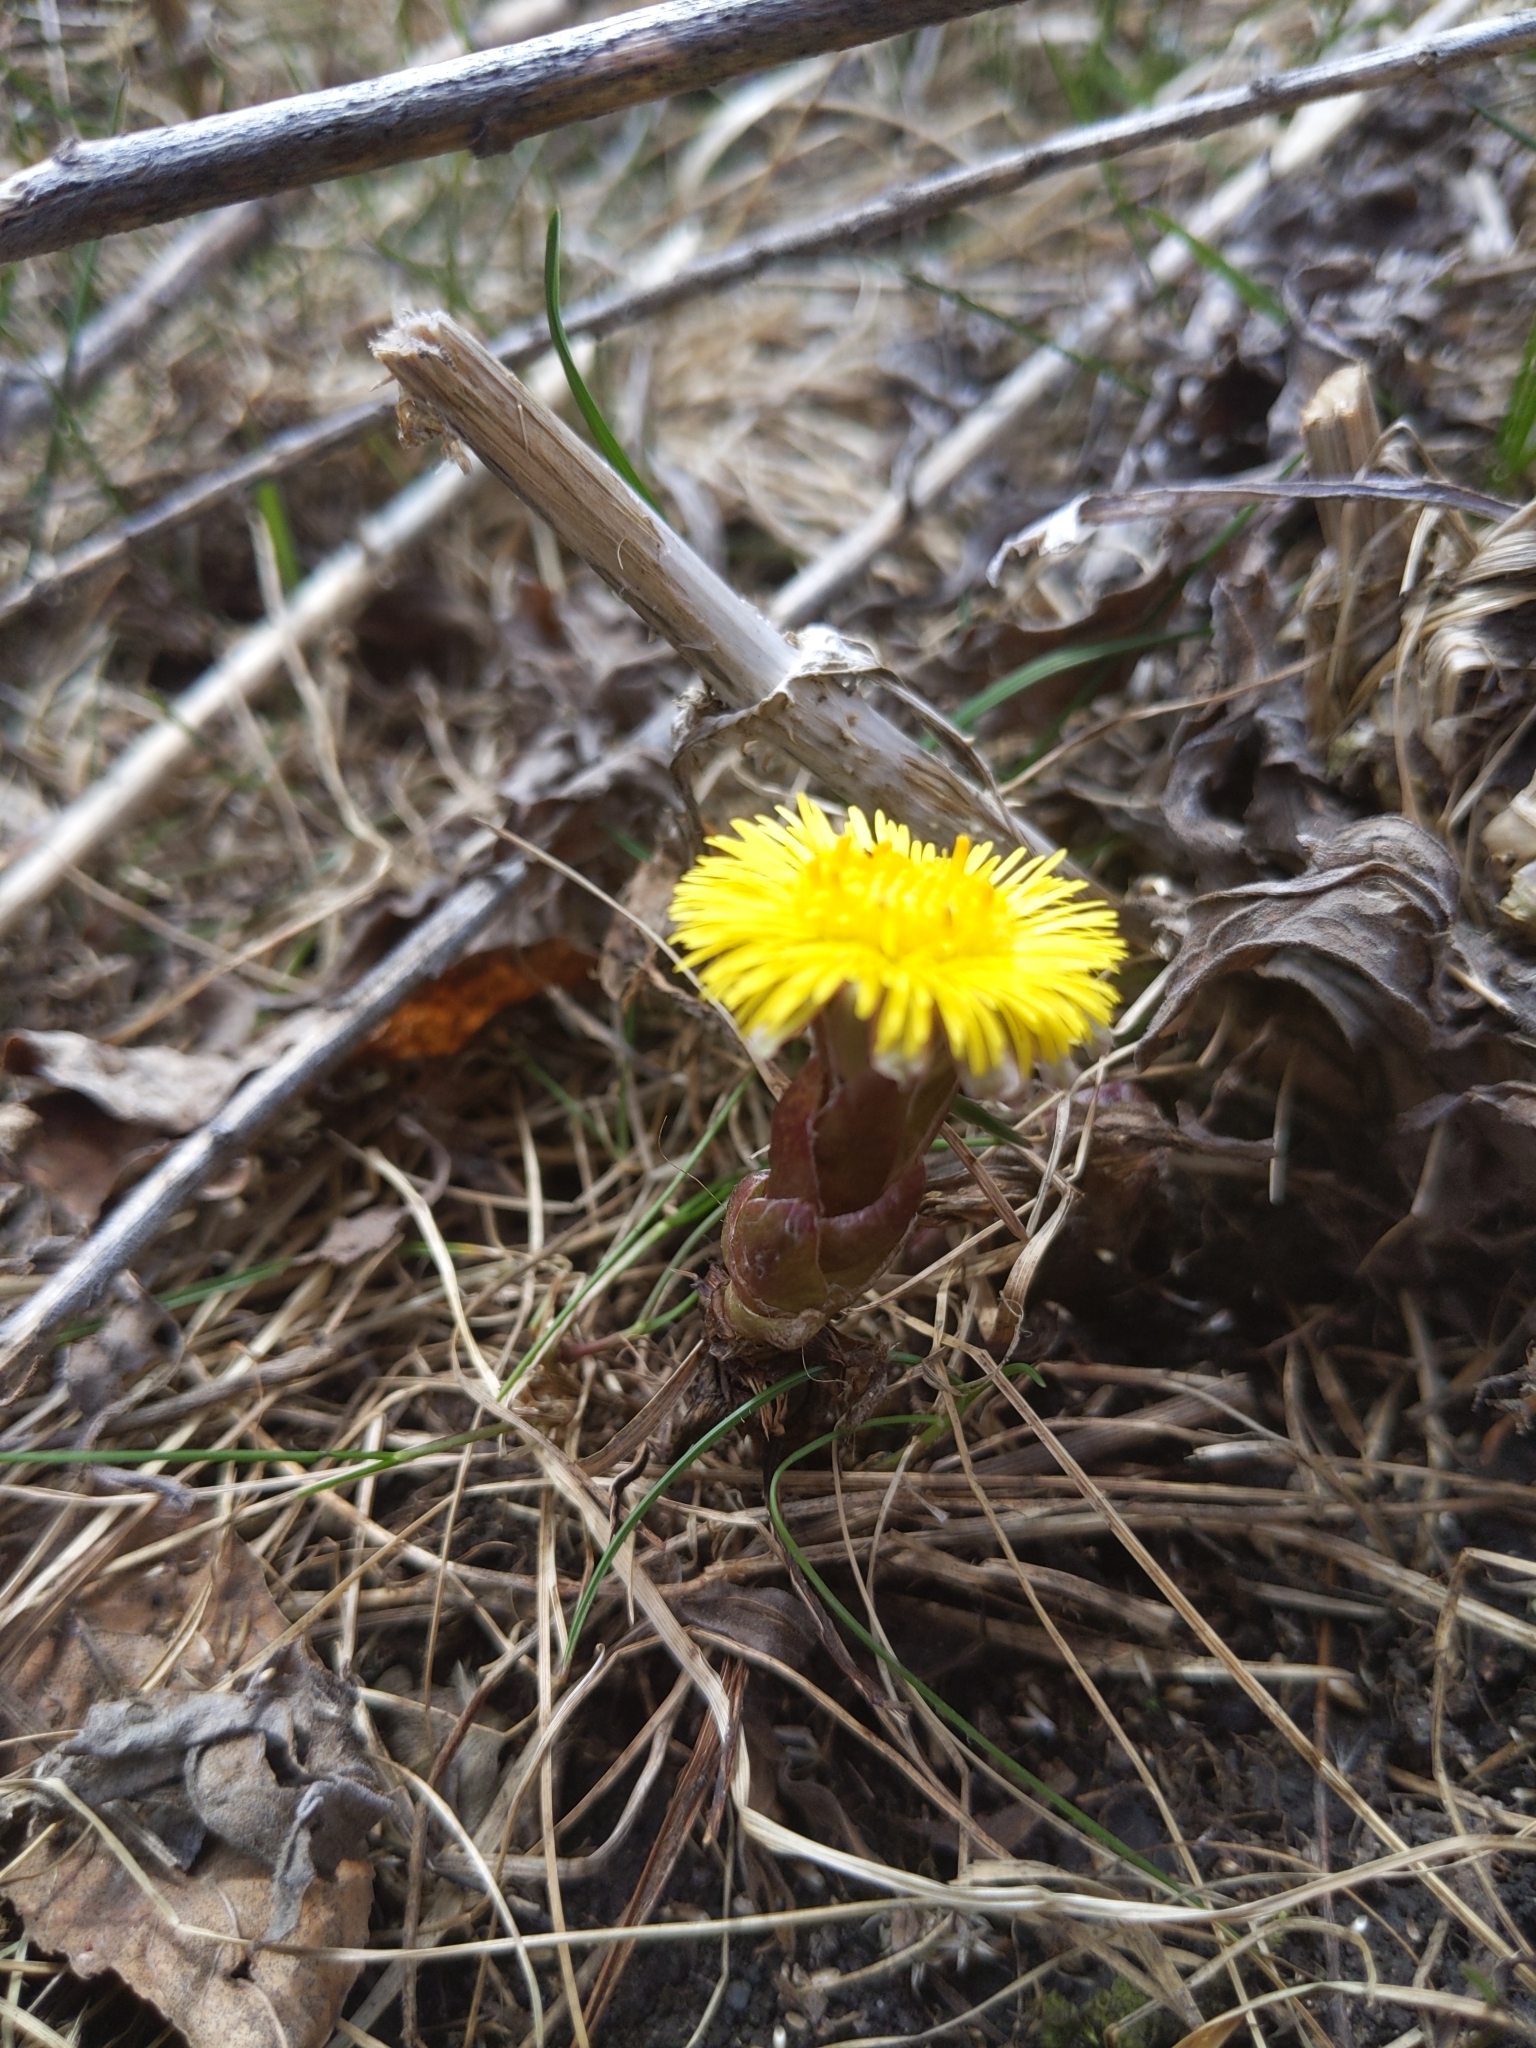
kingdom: Plantae
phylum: Tracheophyta
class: Magnoliopsida
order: Asterales
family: Asteraceae
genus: Tussilago
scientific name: Tussilago farfara
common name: Coltsfoot
